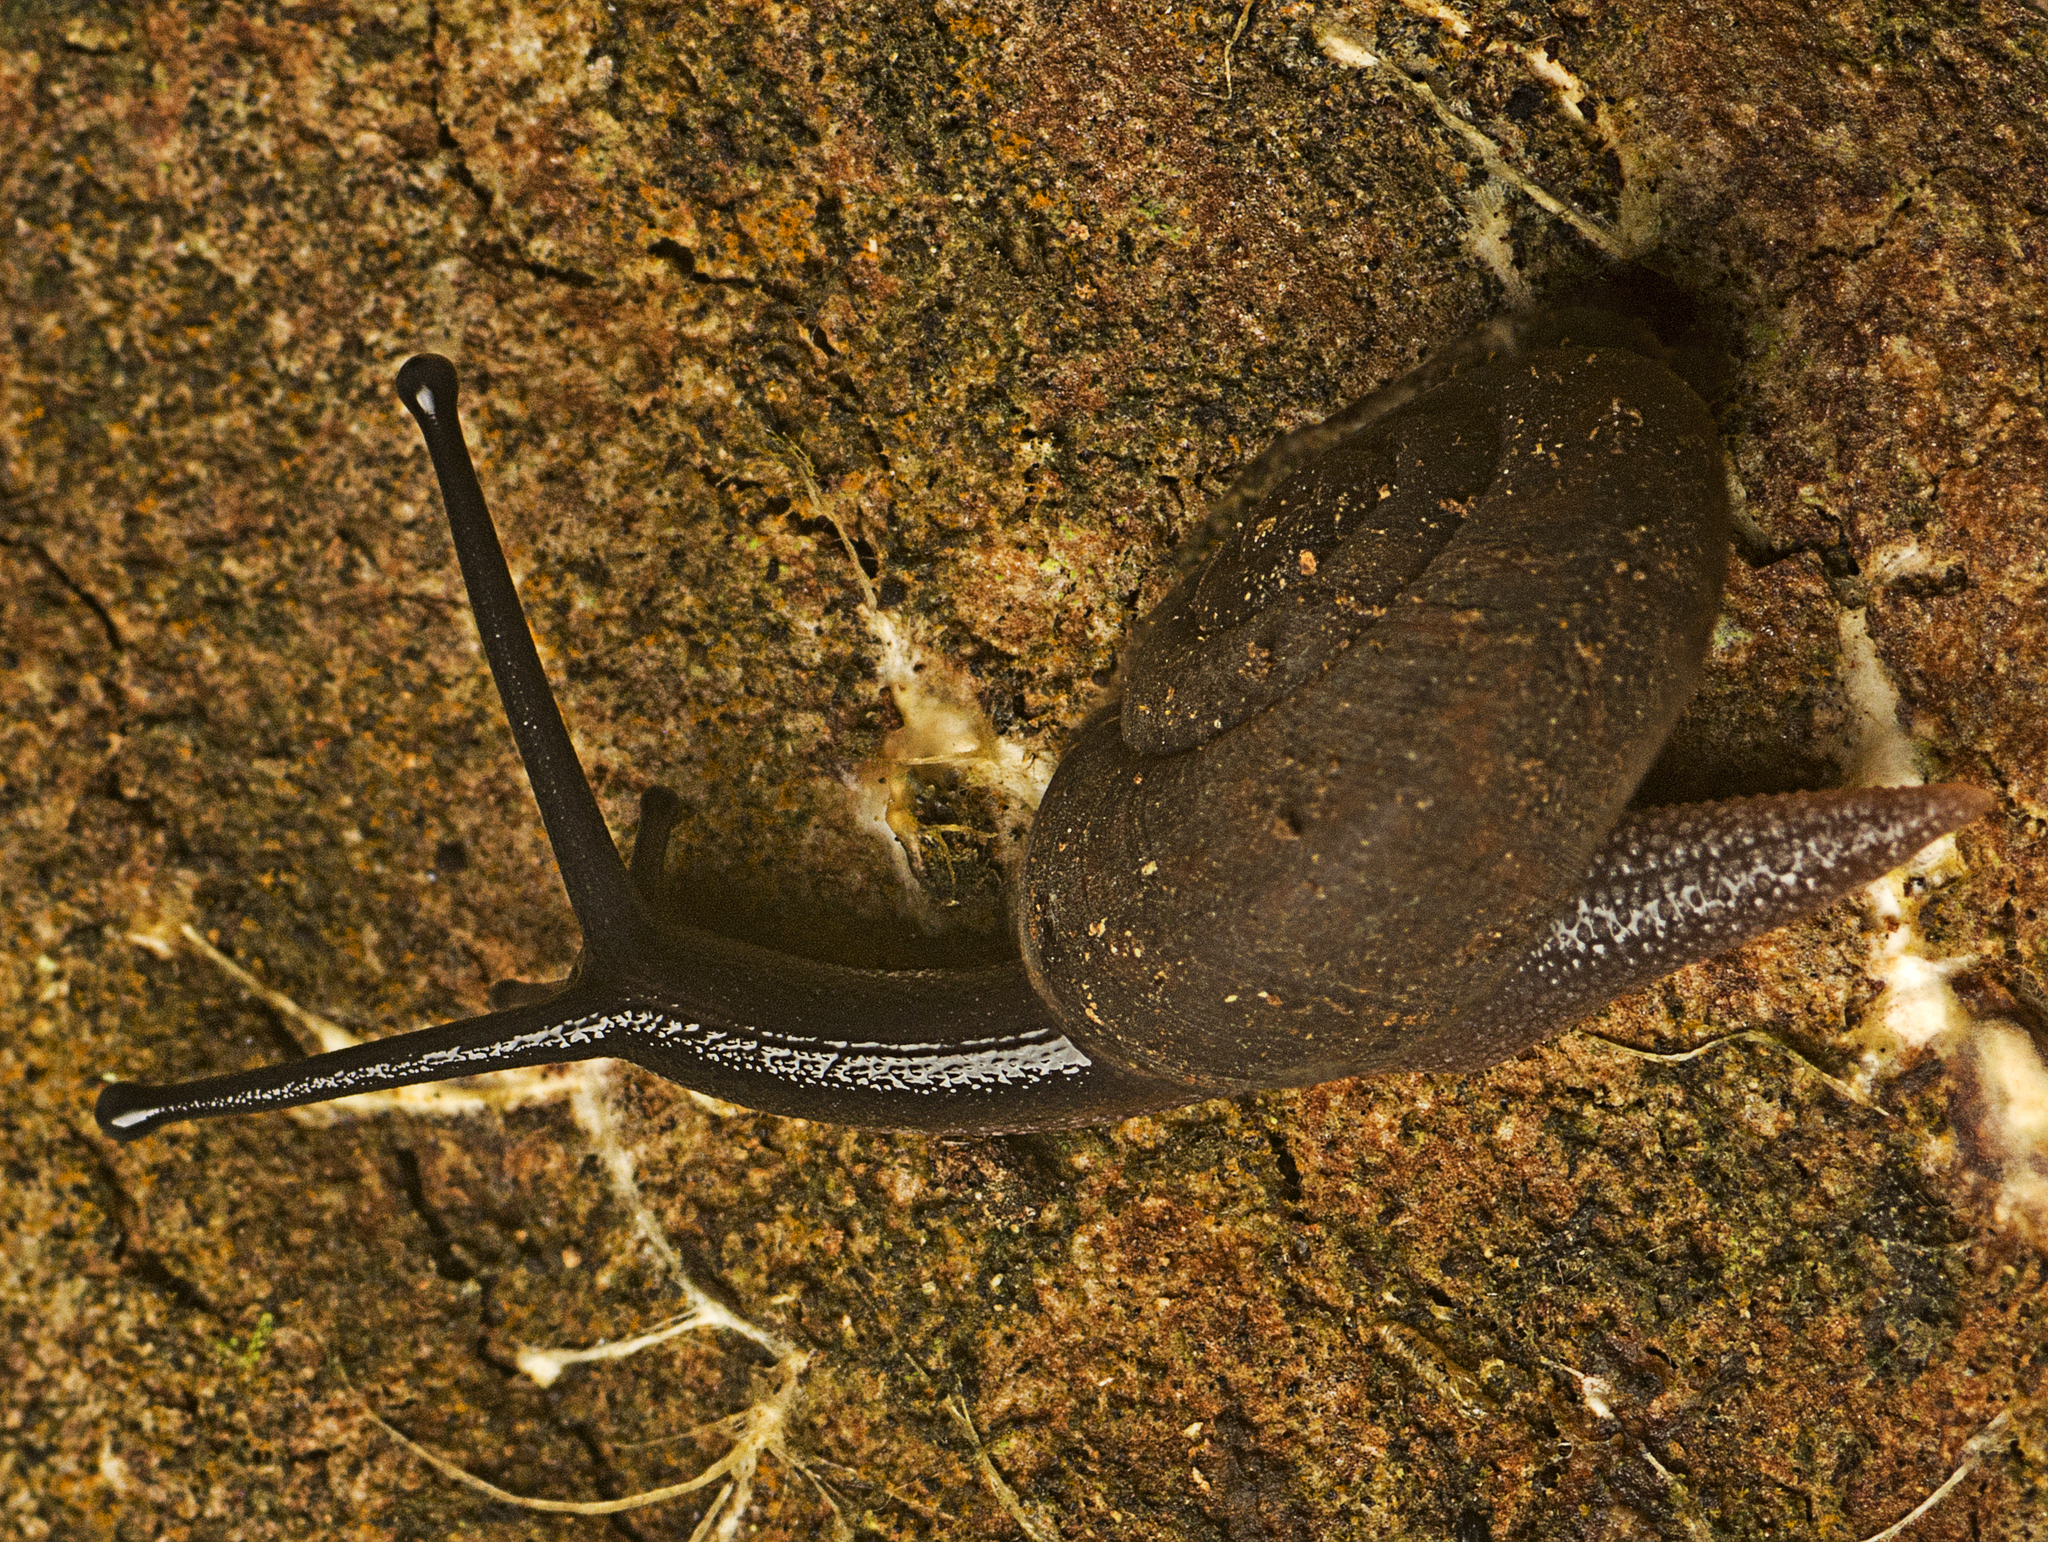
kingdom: Animalia
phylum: Mollusca
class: Gastropoda
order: Stylommatophora
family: Camaenidae
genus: Ramogenia
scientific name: Ramogenia challengeri
